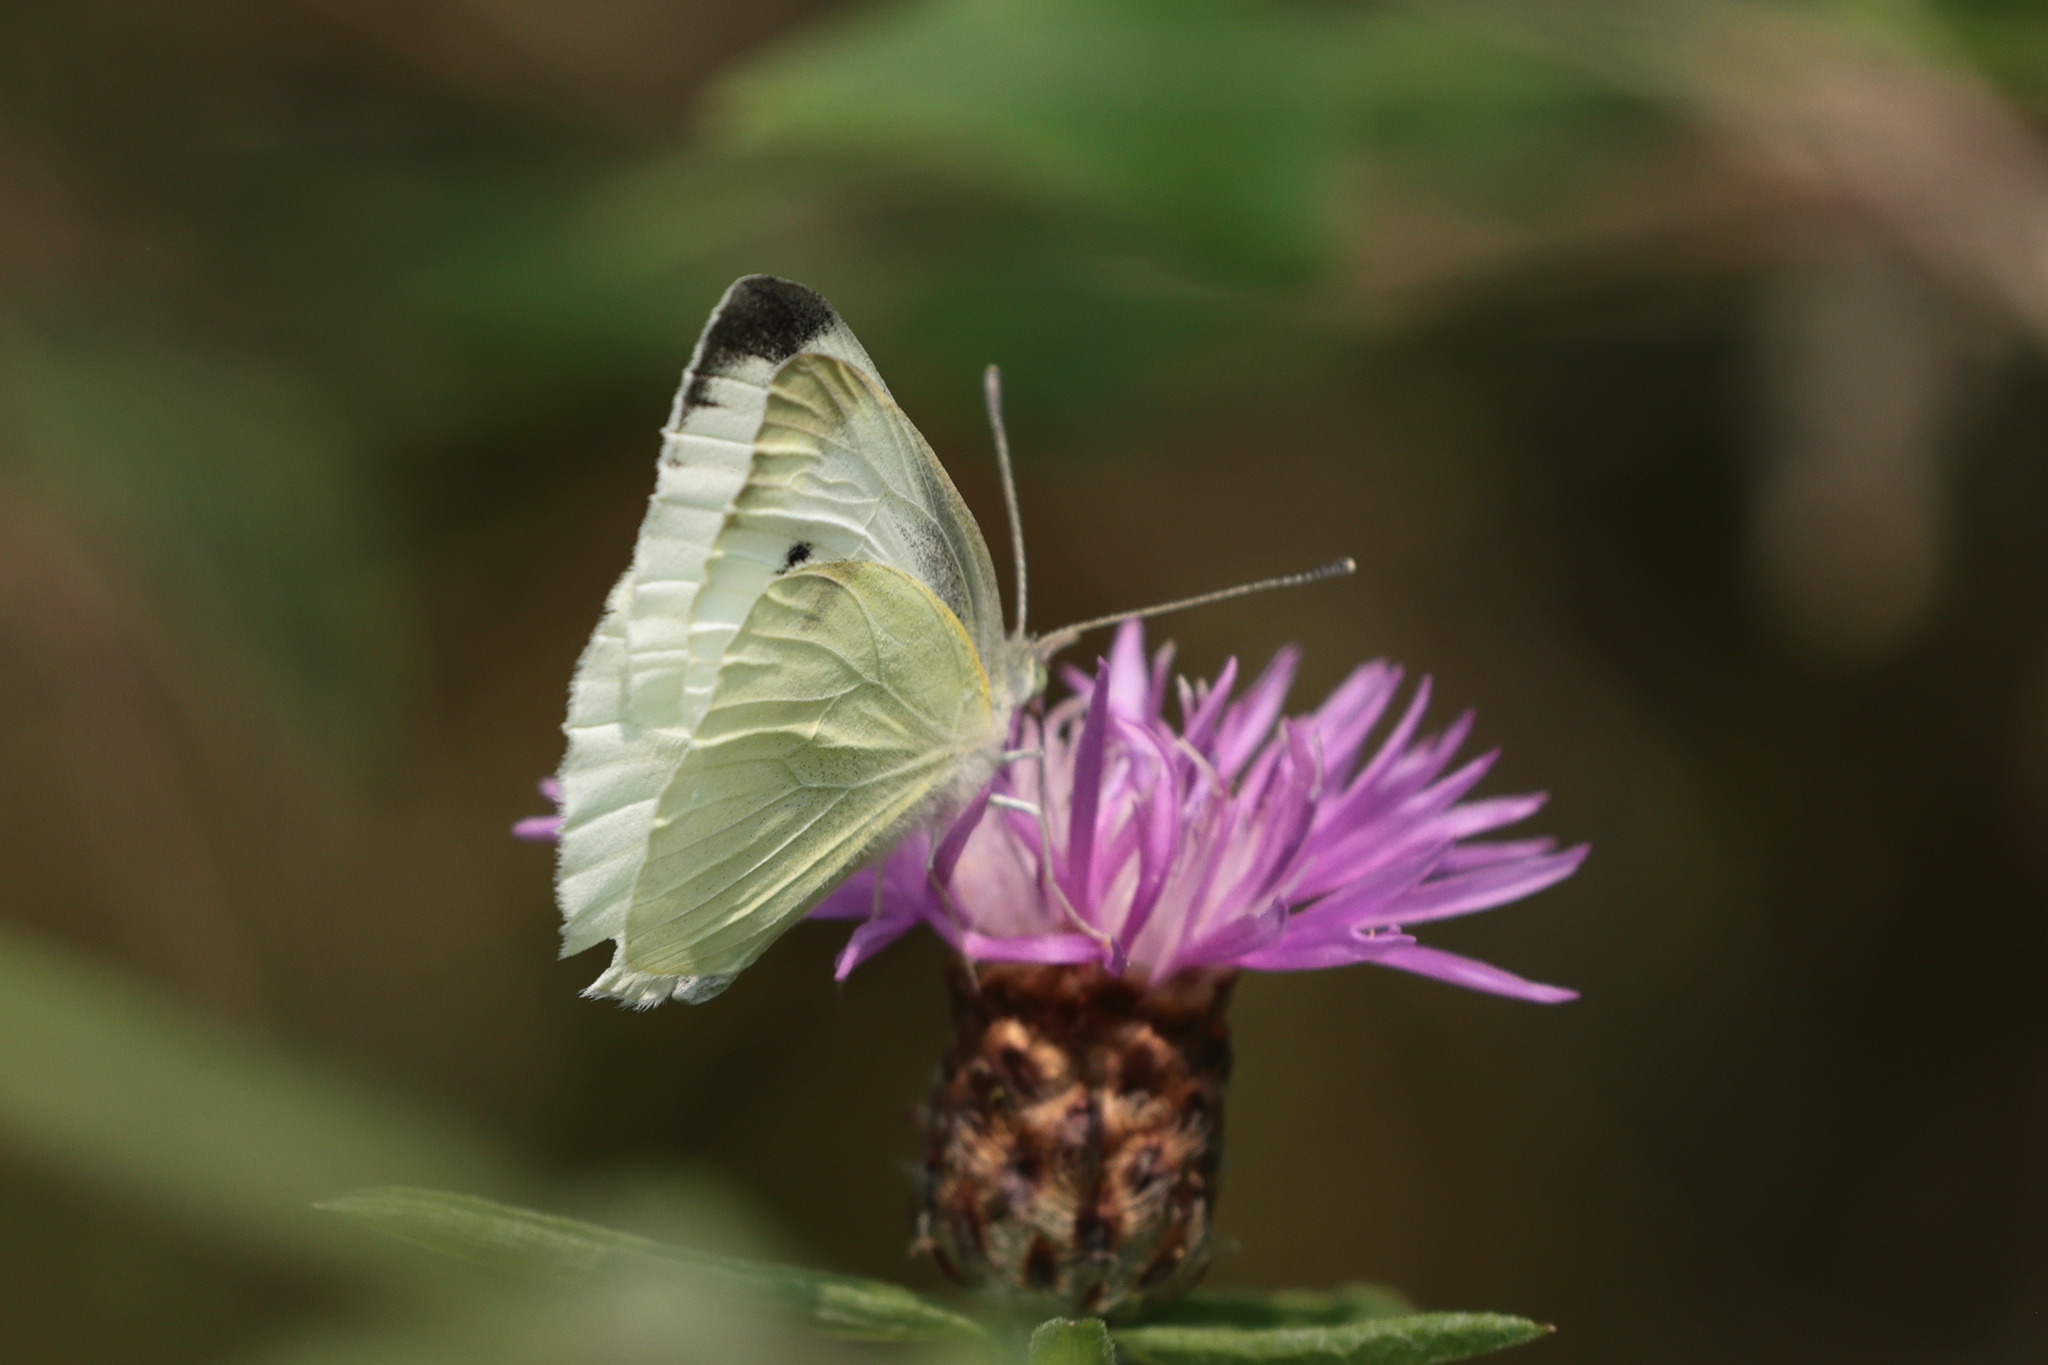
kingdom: Animalia
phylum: Arthropoda
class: Insecta
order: Lepidoptera
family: Pieridae
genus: Pieris
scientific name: Pieris rapae
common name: Small white
